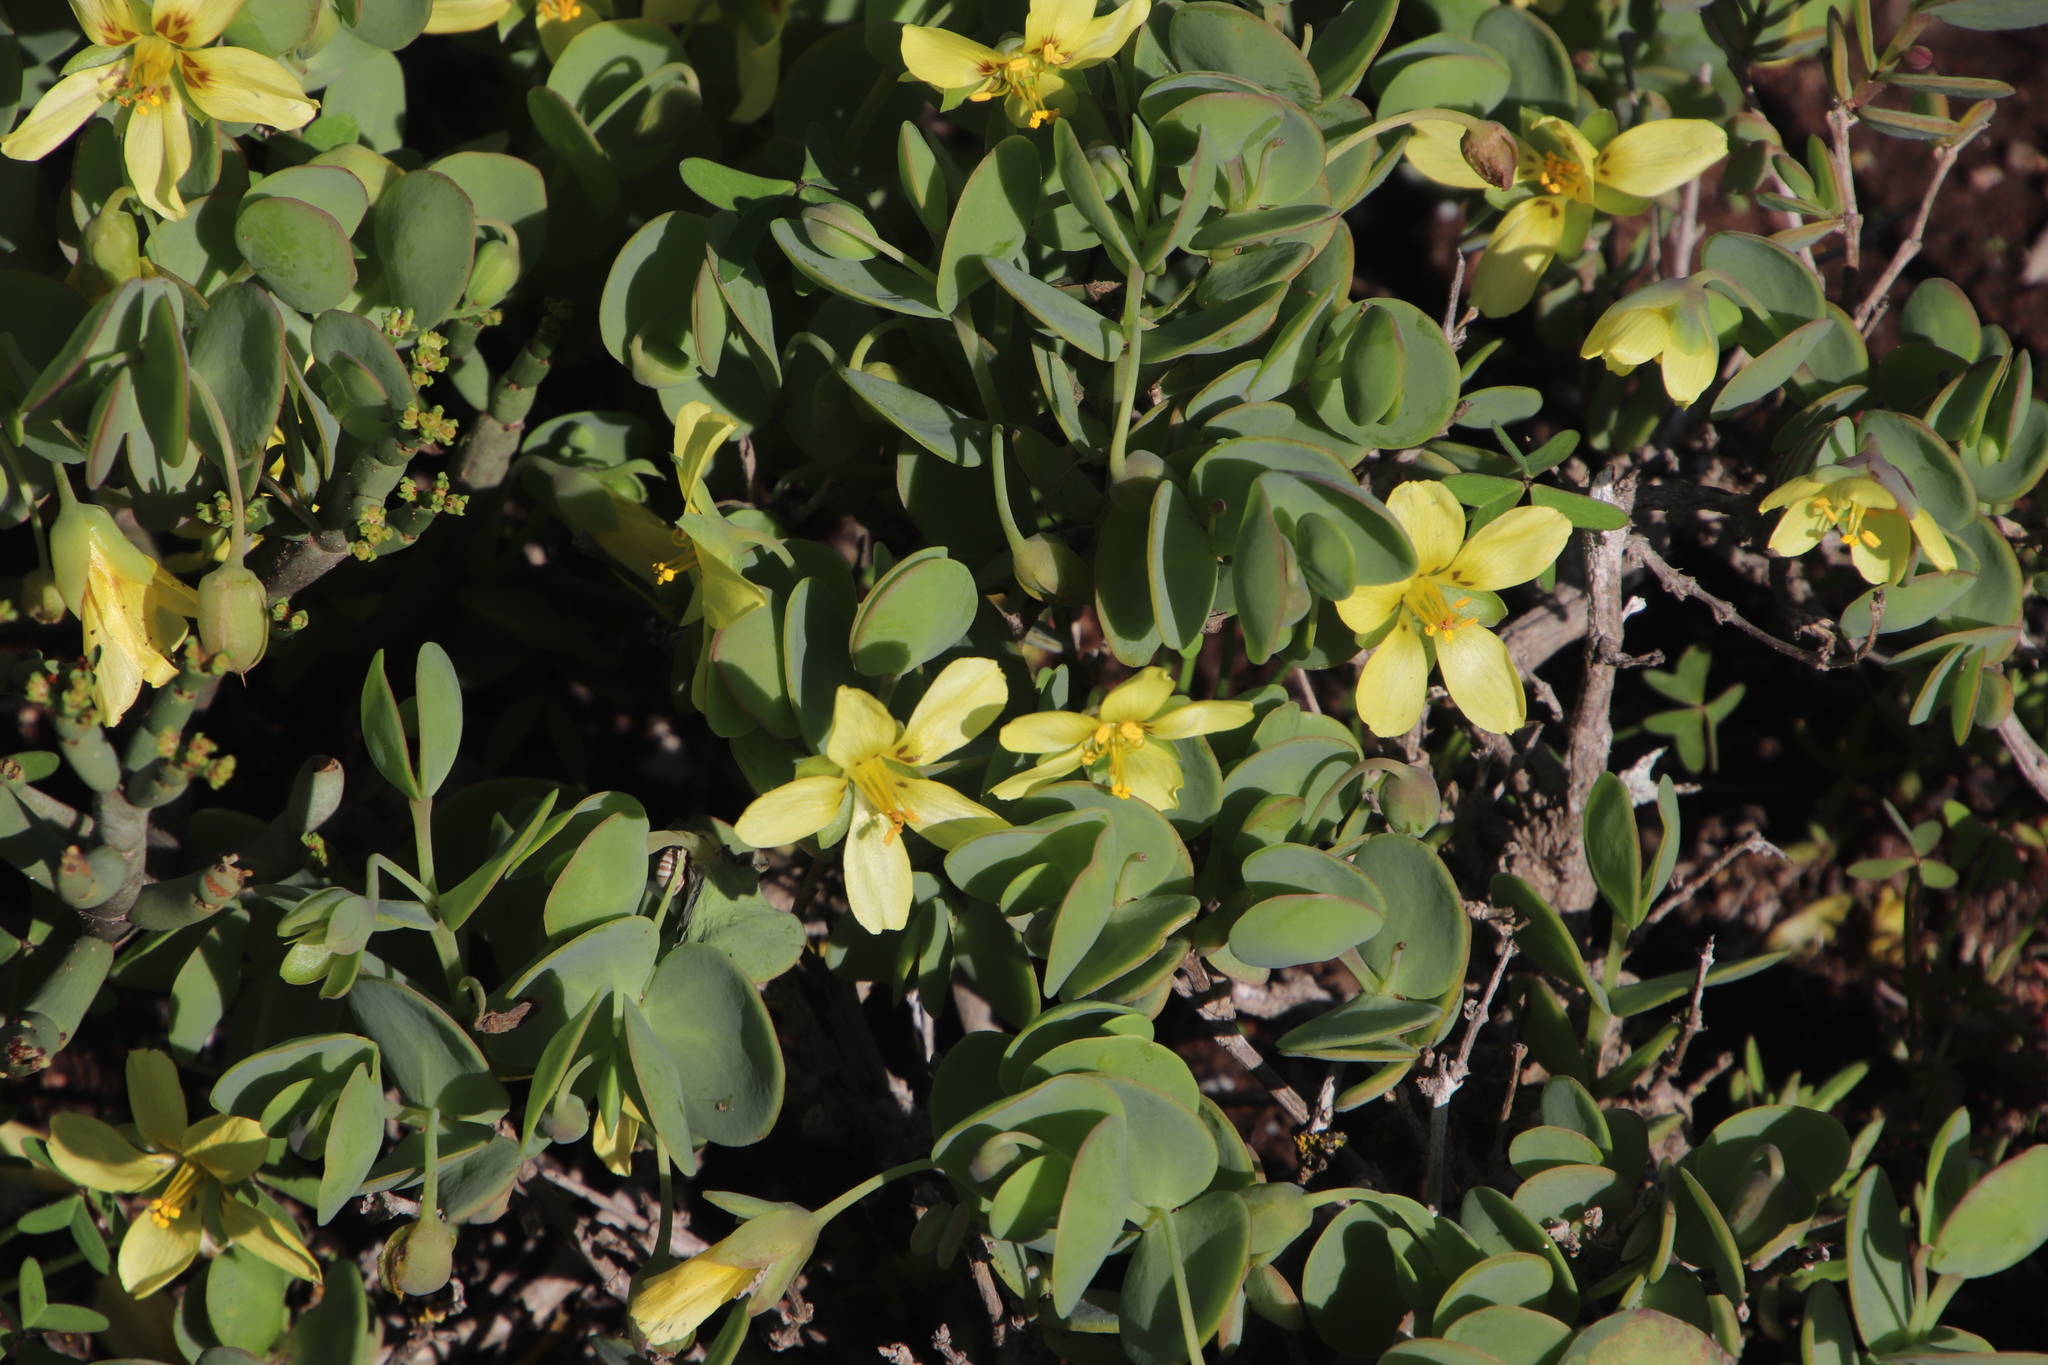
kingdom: Plantae
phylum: Tracheophyta
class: Magnoliopsida
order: Zygophyllales
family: Zygophyllaceae
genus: Roepera
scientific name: Roepera cordifolia
